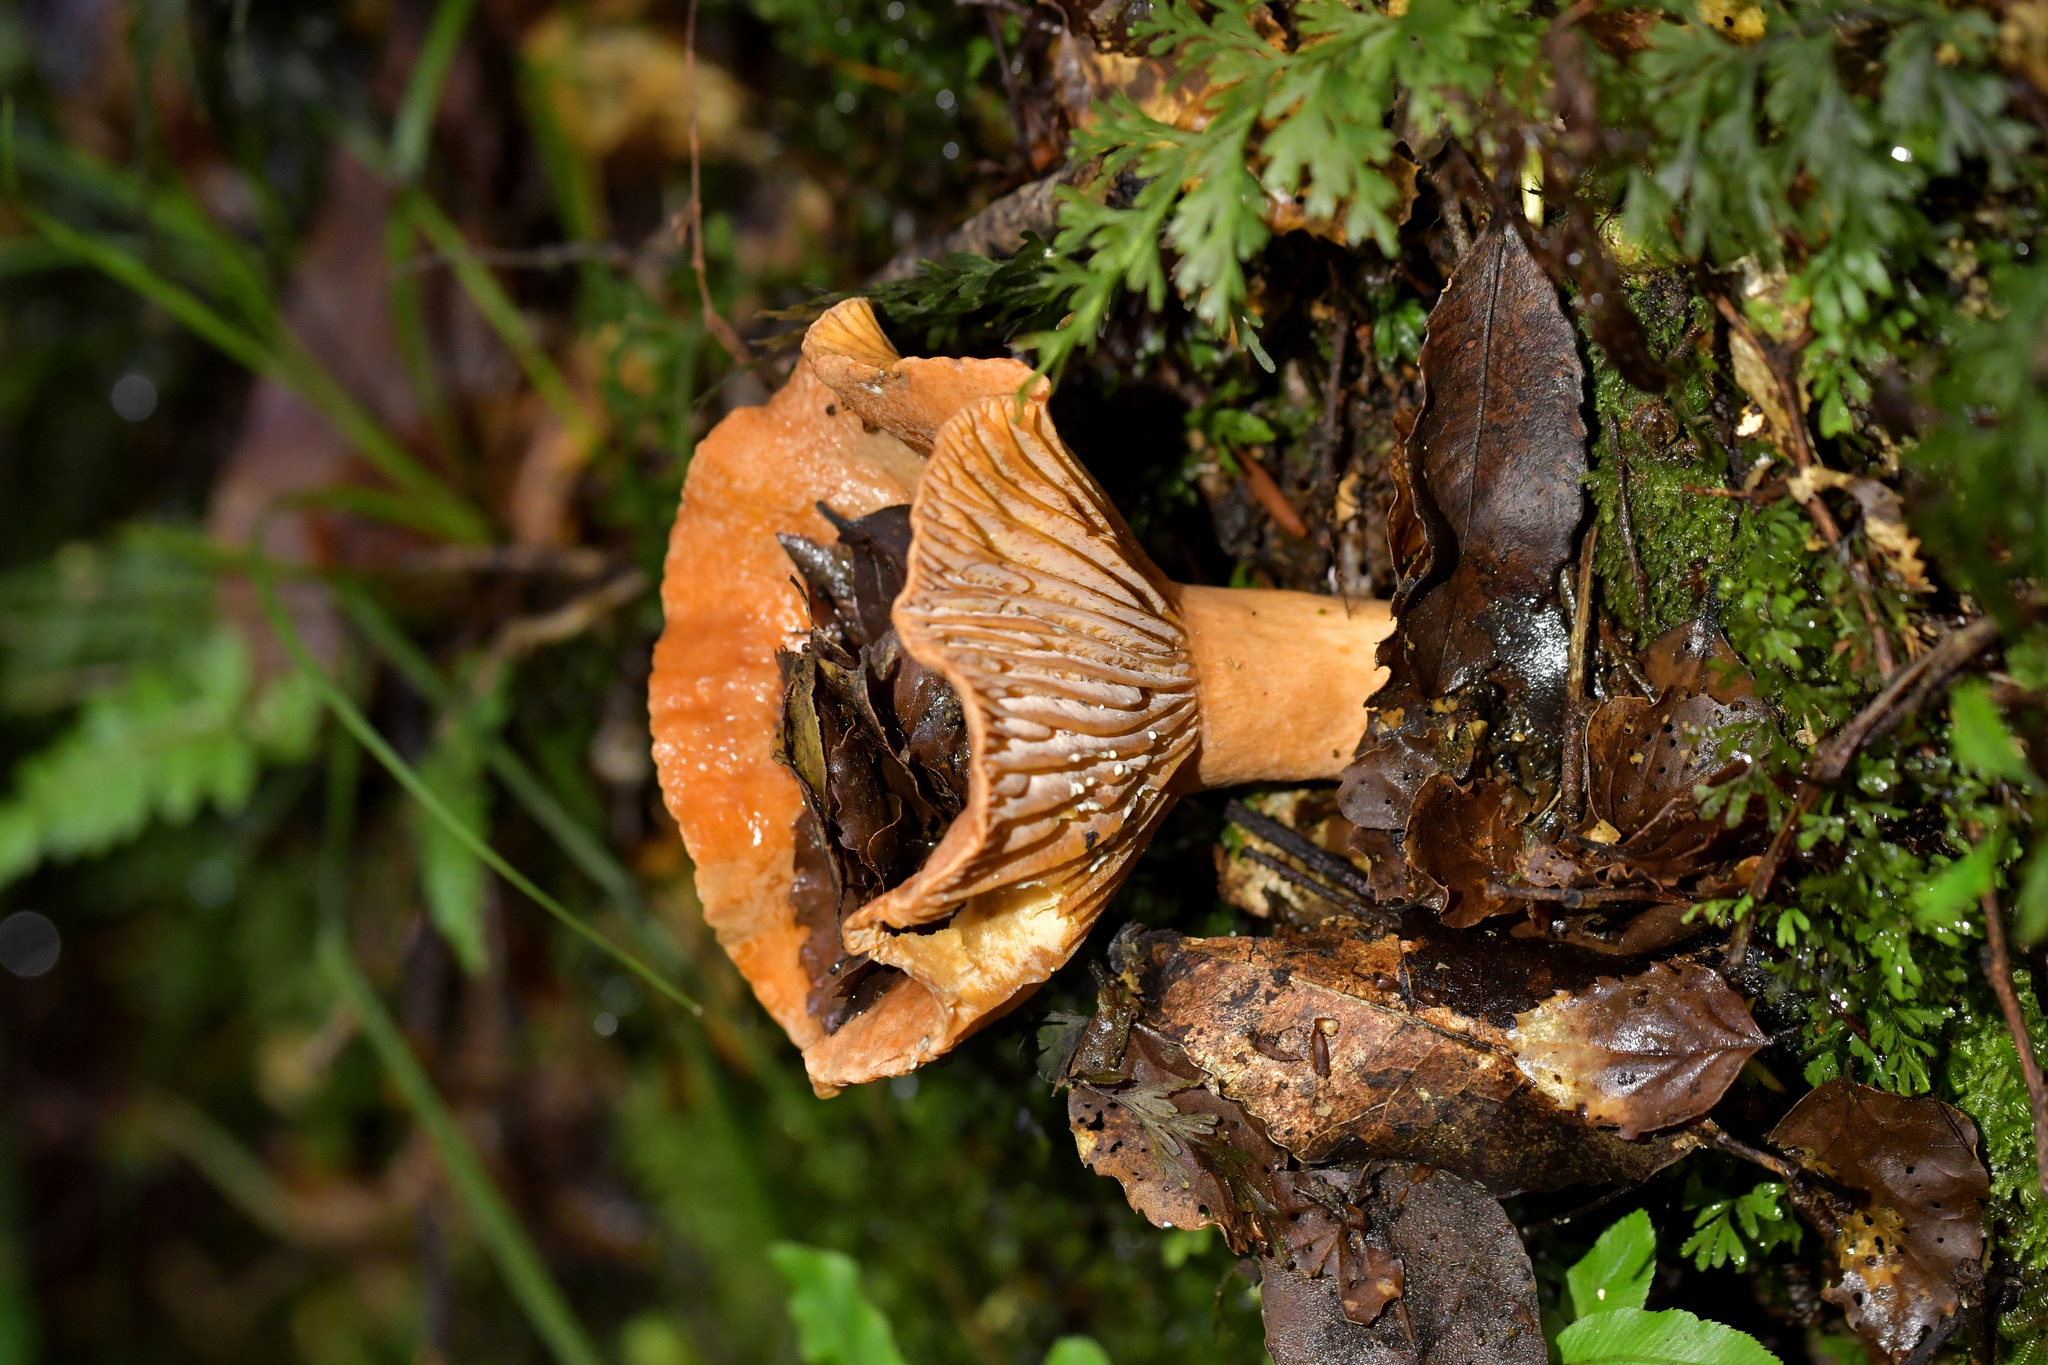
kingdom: Fungi
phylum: Basidiomycota
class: Agaricomycetes
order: Russulales
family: Russulaceae
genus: Lactifluus
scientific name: Lactifluus aurantioruber
